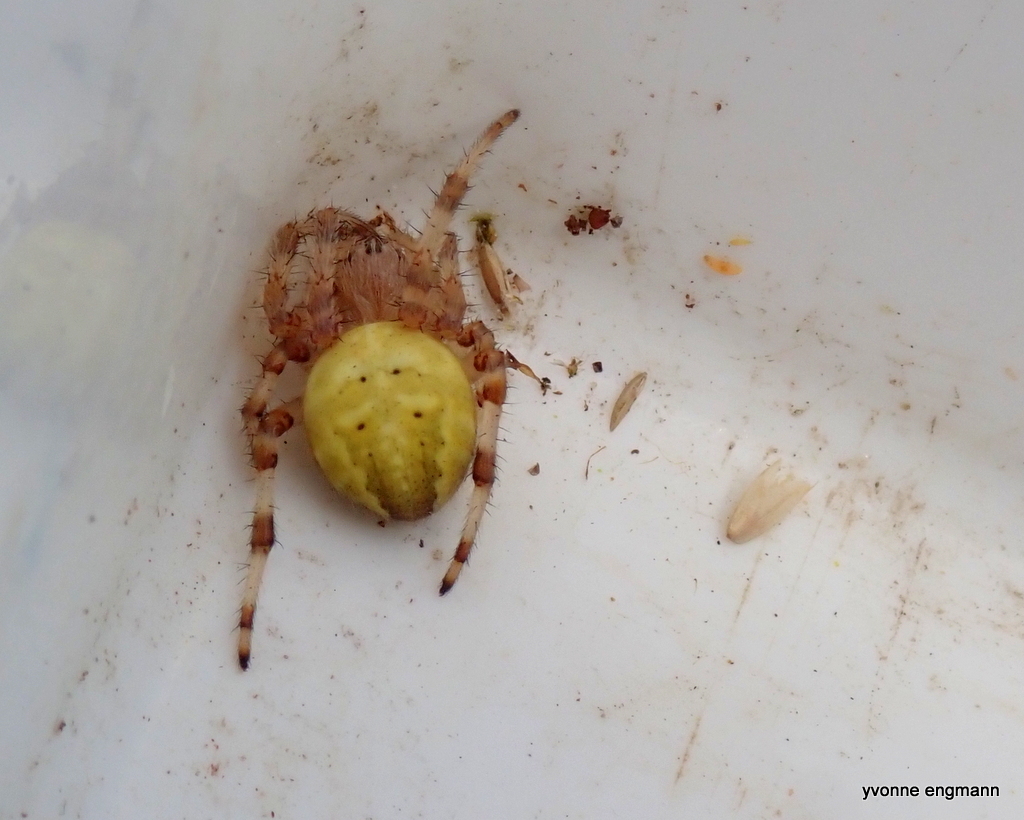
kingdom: Animalia
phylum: Arthropoda
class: Arachnida
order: Araneae
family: Araneidae
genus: Araneus
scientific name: Araneus quadratus
